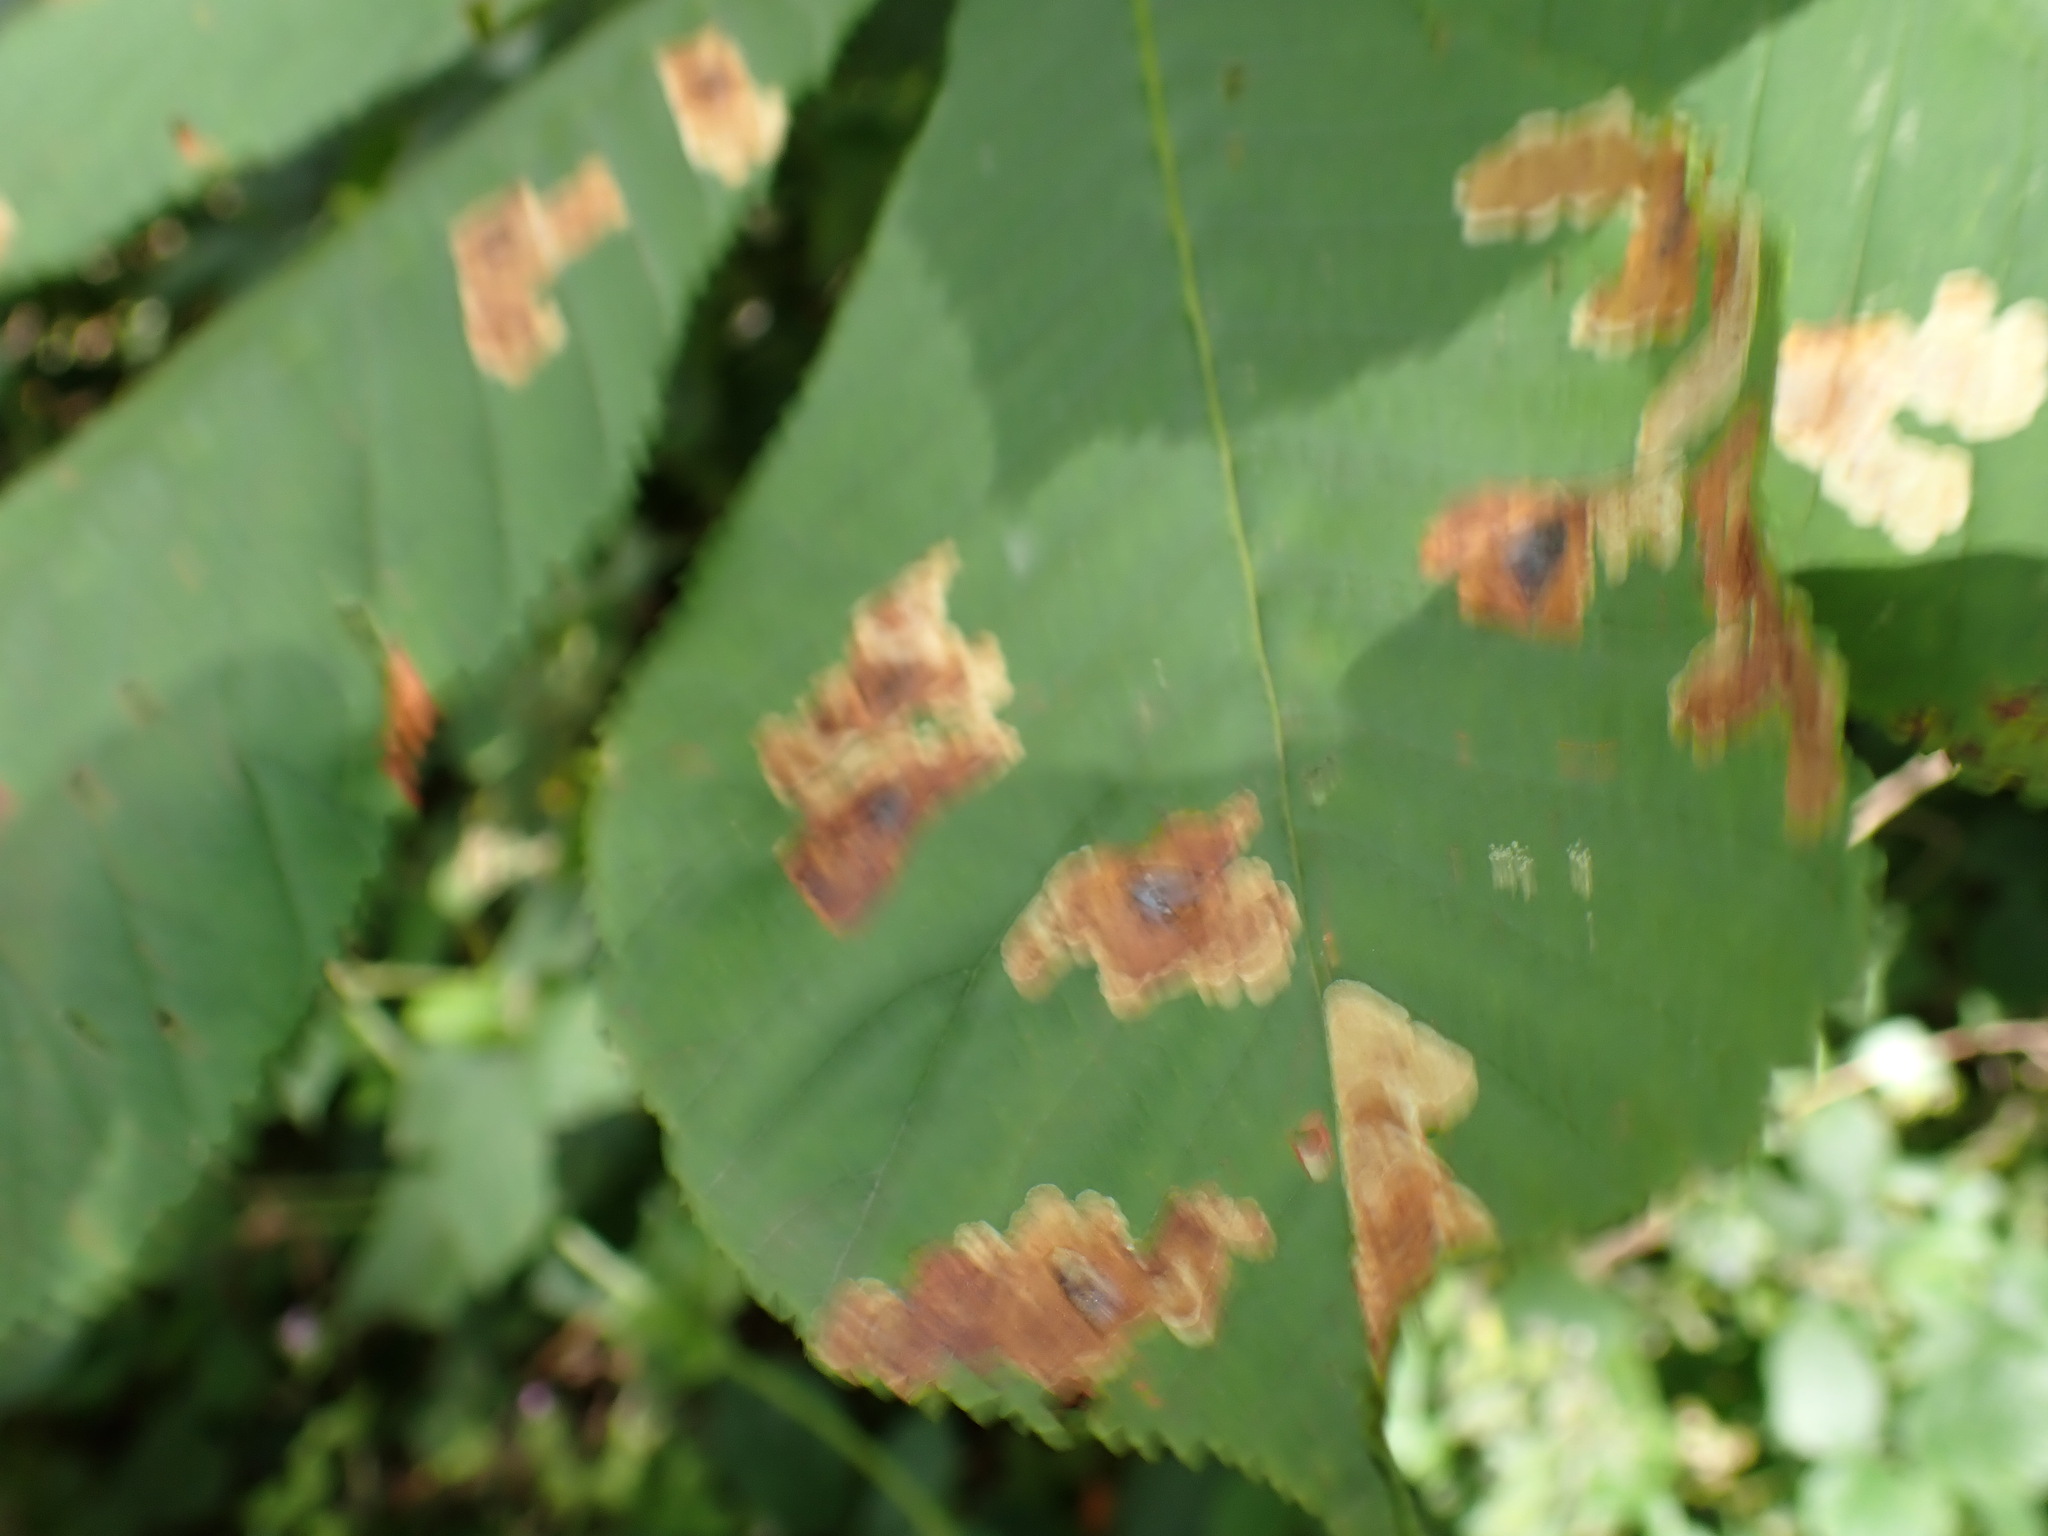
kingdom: Animalia
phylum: Arthropoda
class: Insecta
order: Lepidoptera
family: Gracillariidae
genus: Cameraria
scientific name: Cameraria ohridella
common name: Horse-chestnut leaf-miner
